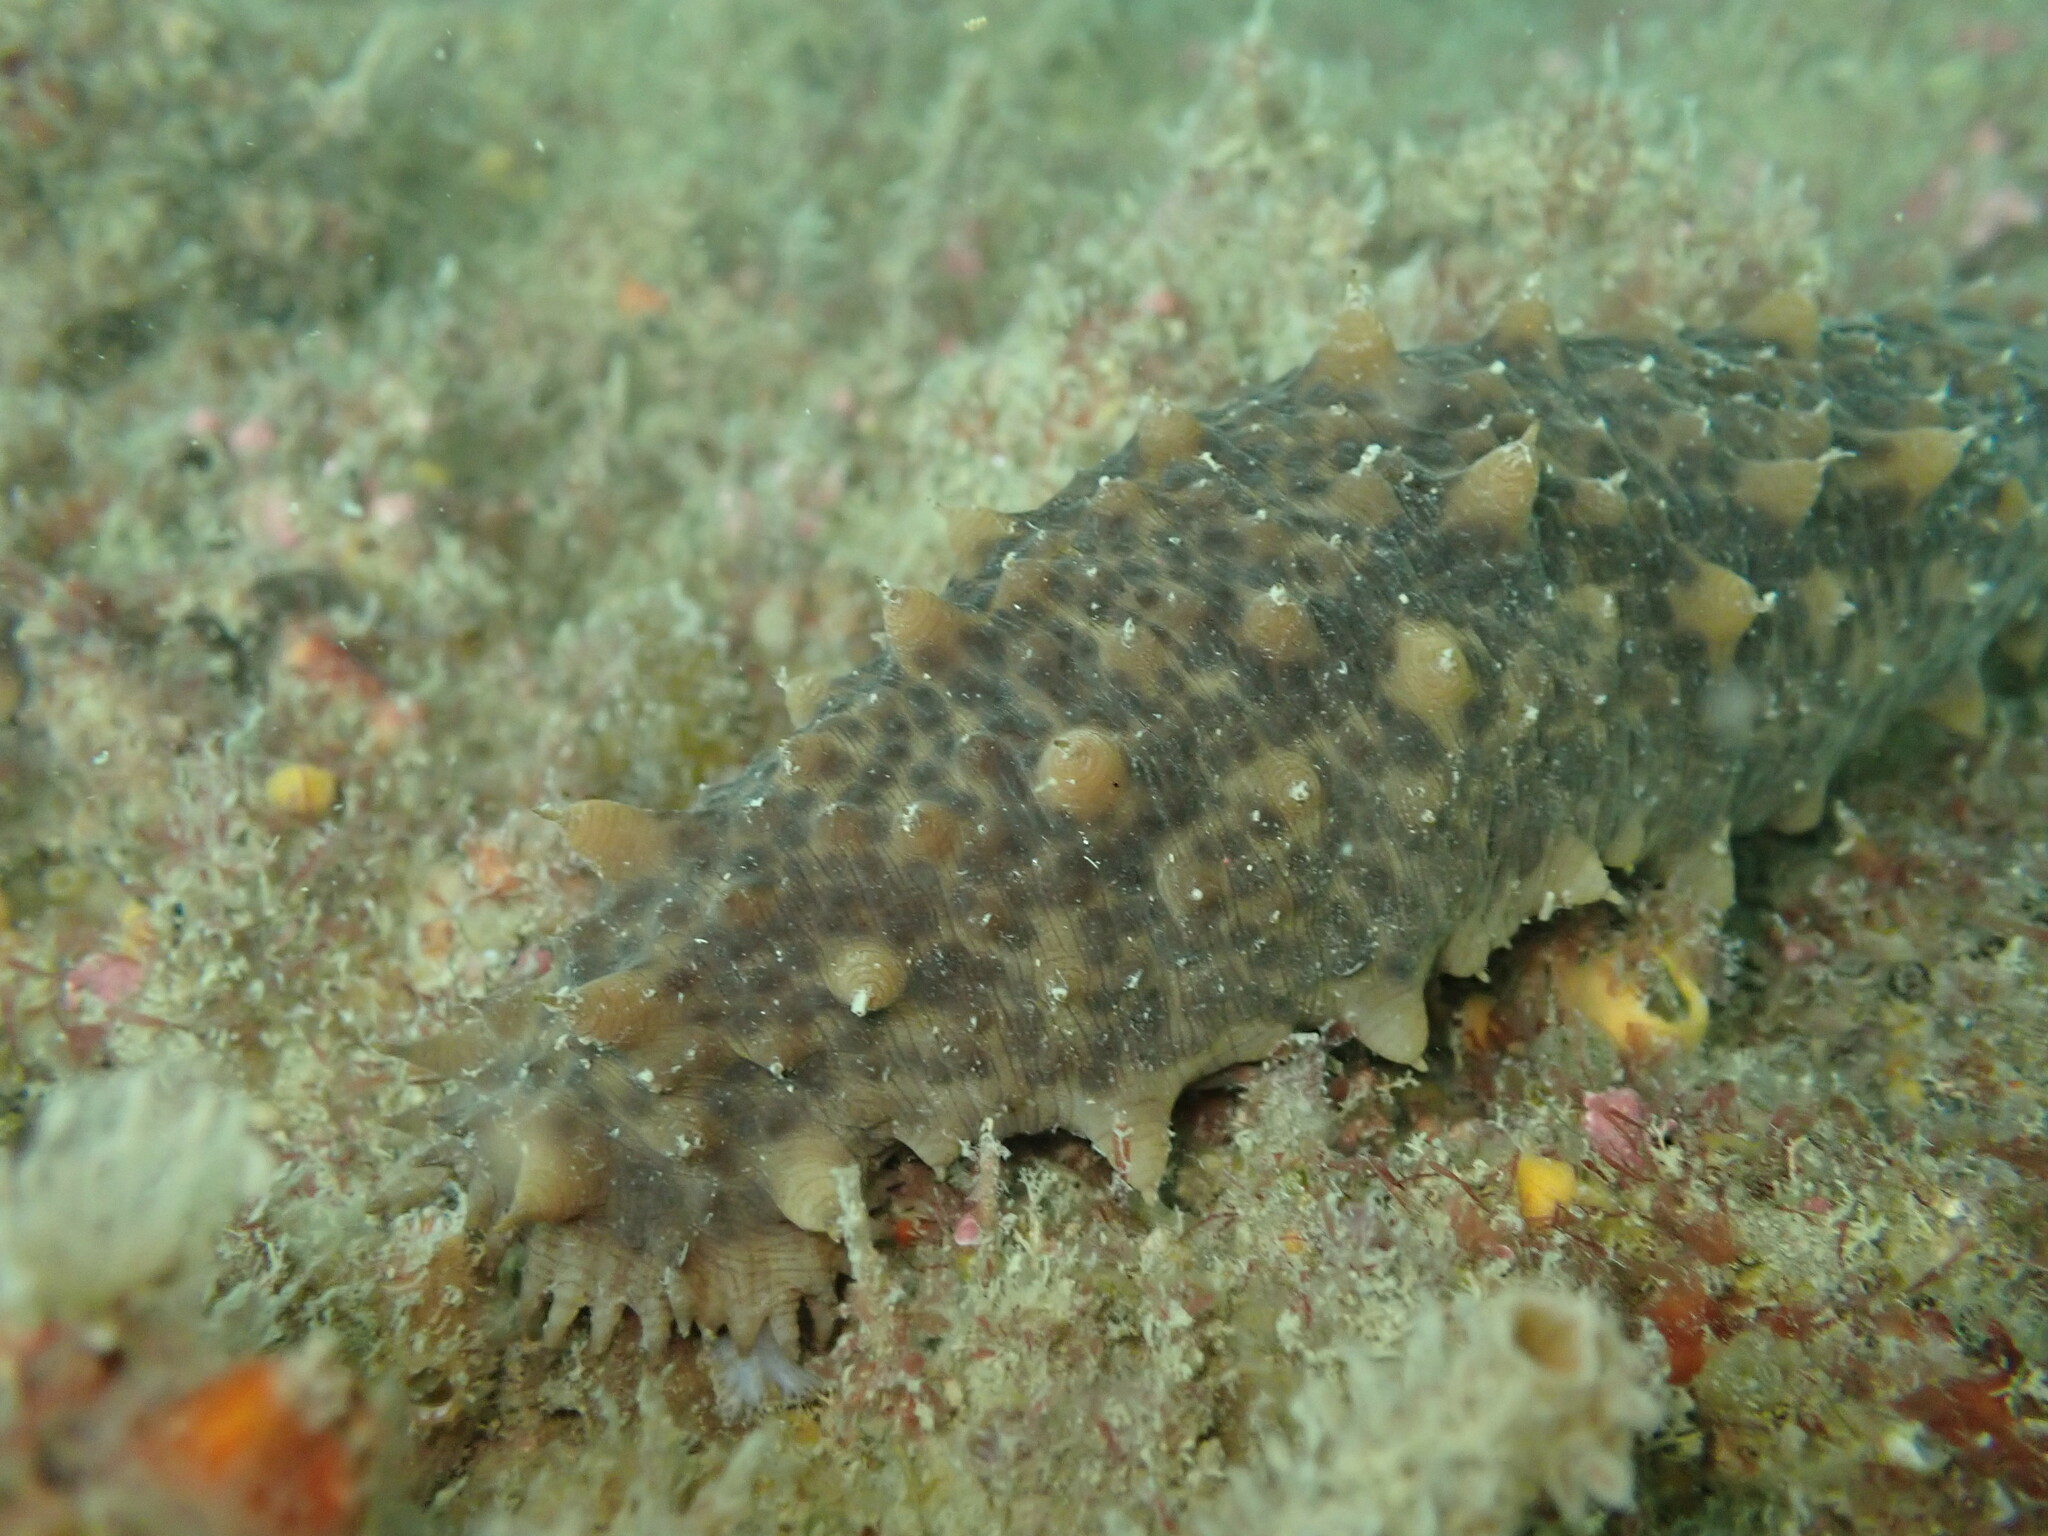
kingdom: Animalia
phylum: Echinodermata
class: Holothuroidea
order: Synallactida
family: Stichopodidae
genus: Australostichopus
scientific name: Australostichopus mollis
